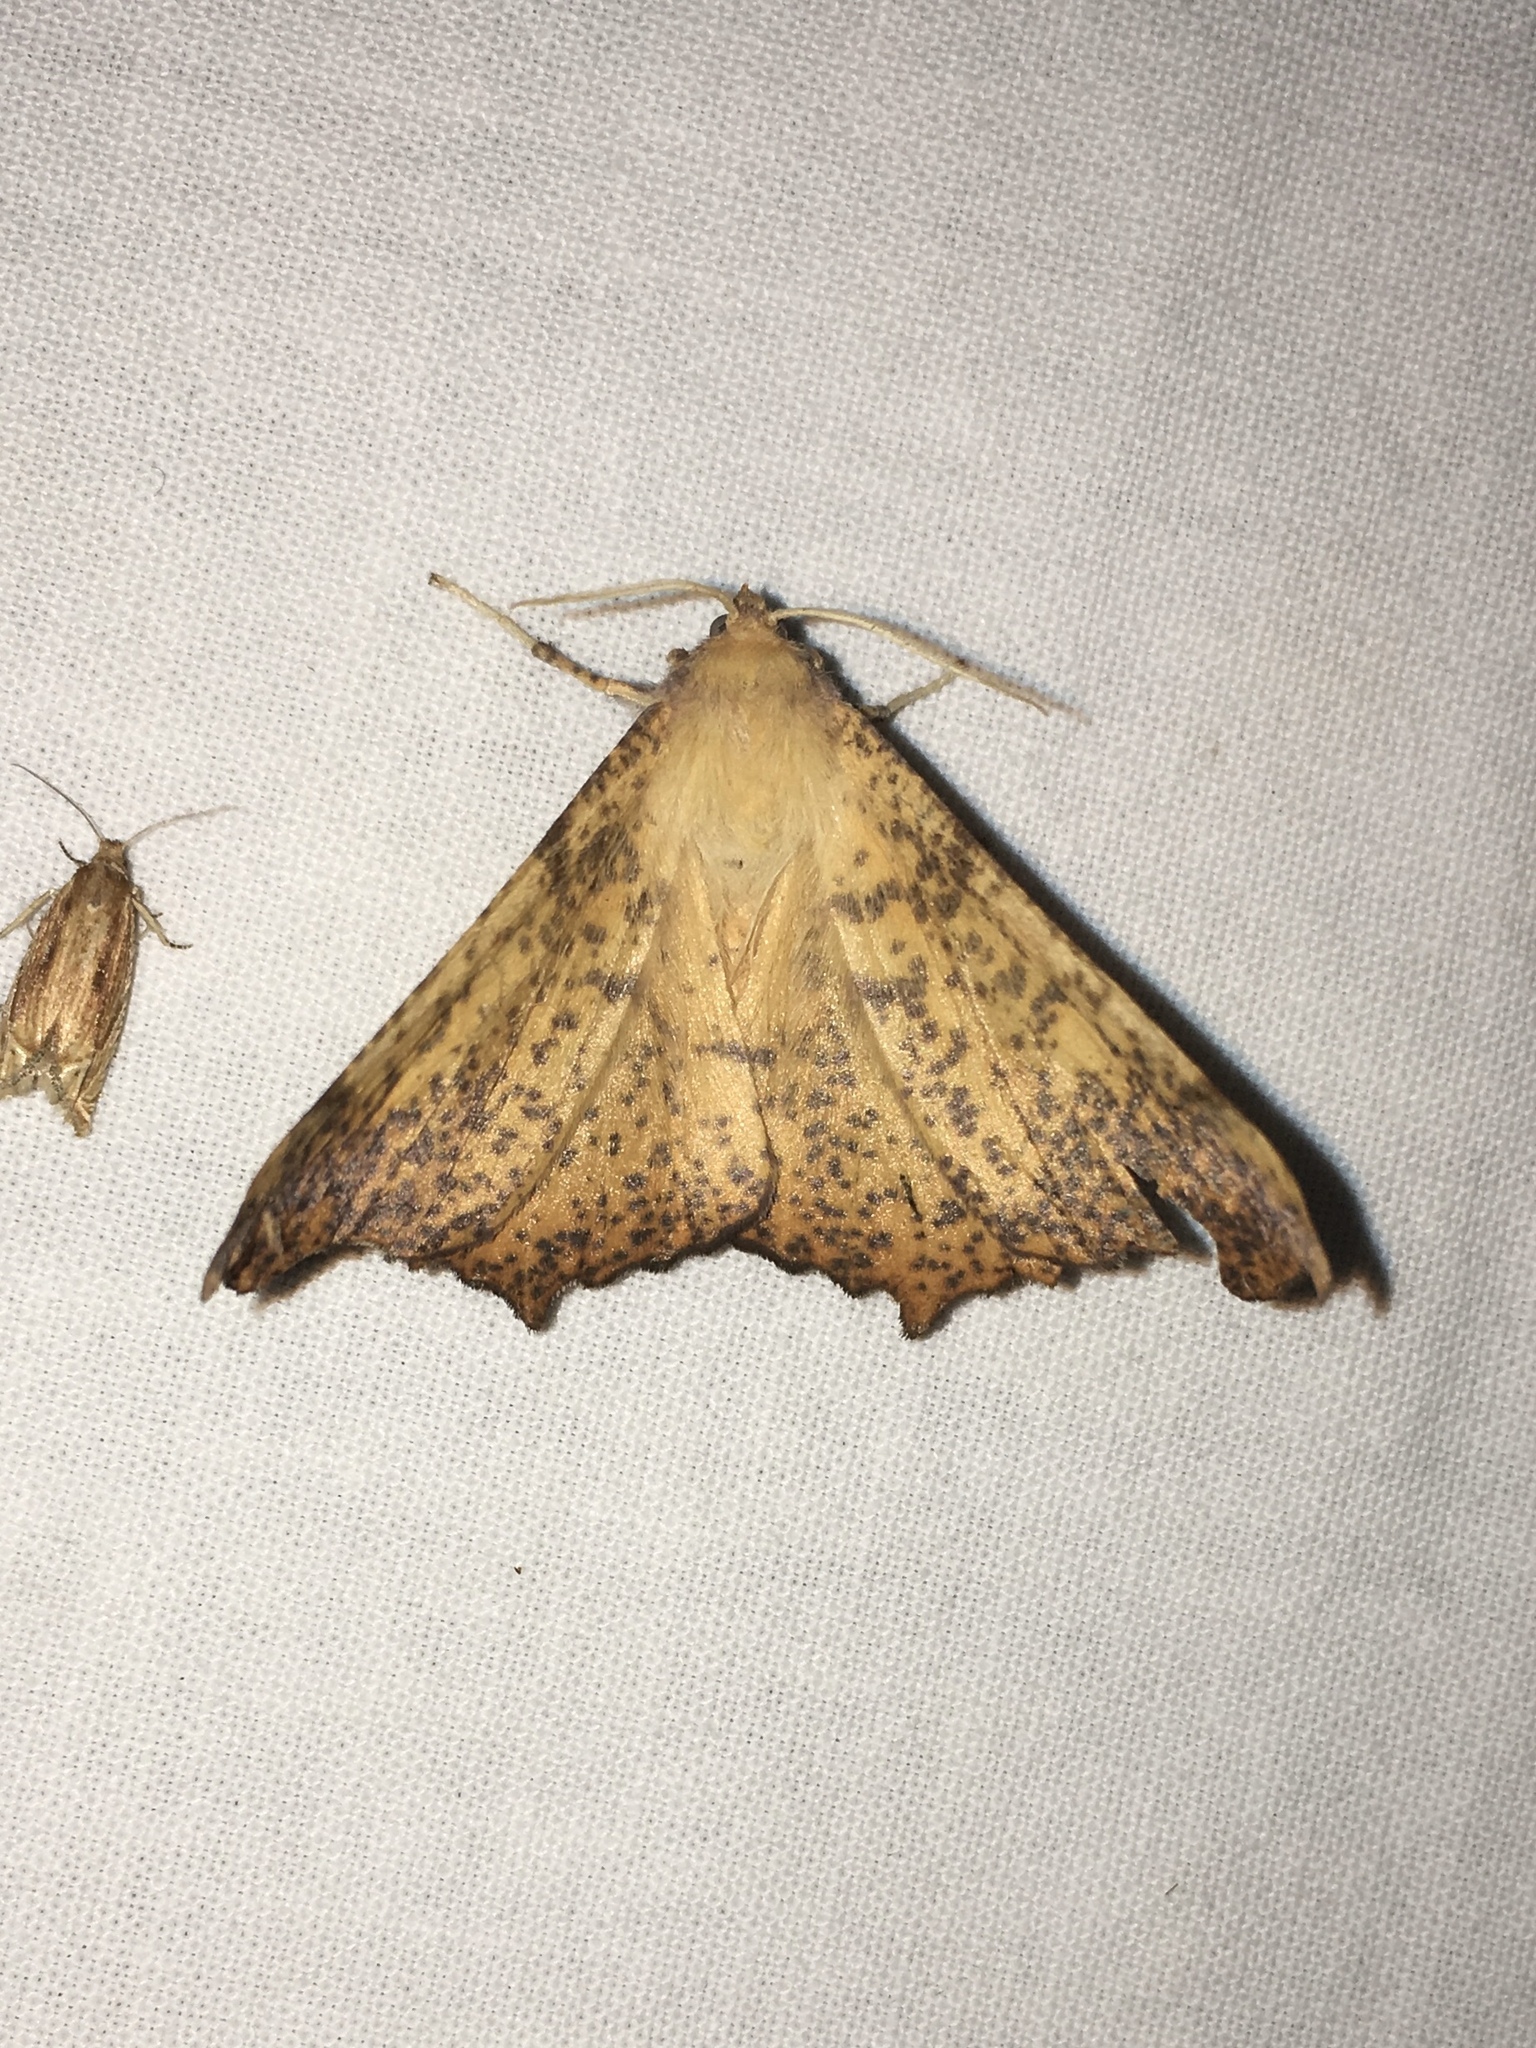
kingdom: Animalia
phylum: Arthropoda
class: Insecta
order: Lepidoptera
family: Geometridae
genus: Ennomos
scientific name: Ennomos magnaria
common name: Maple spanworm
